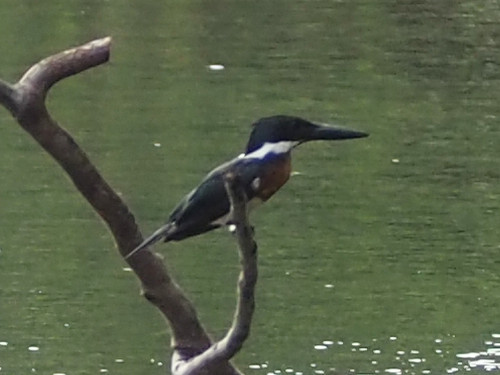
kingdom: Animalia
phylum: Chordata
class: Aves
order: Coraciiformes
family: Alcedinidae
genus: Chloroceryle
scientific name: Chloroceryle amazona
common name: Amazon kingfisher
